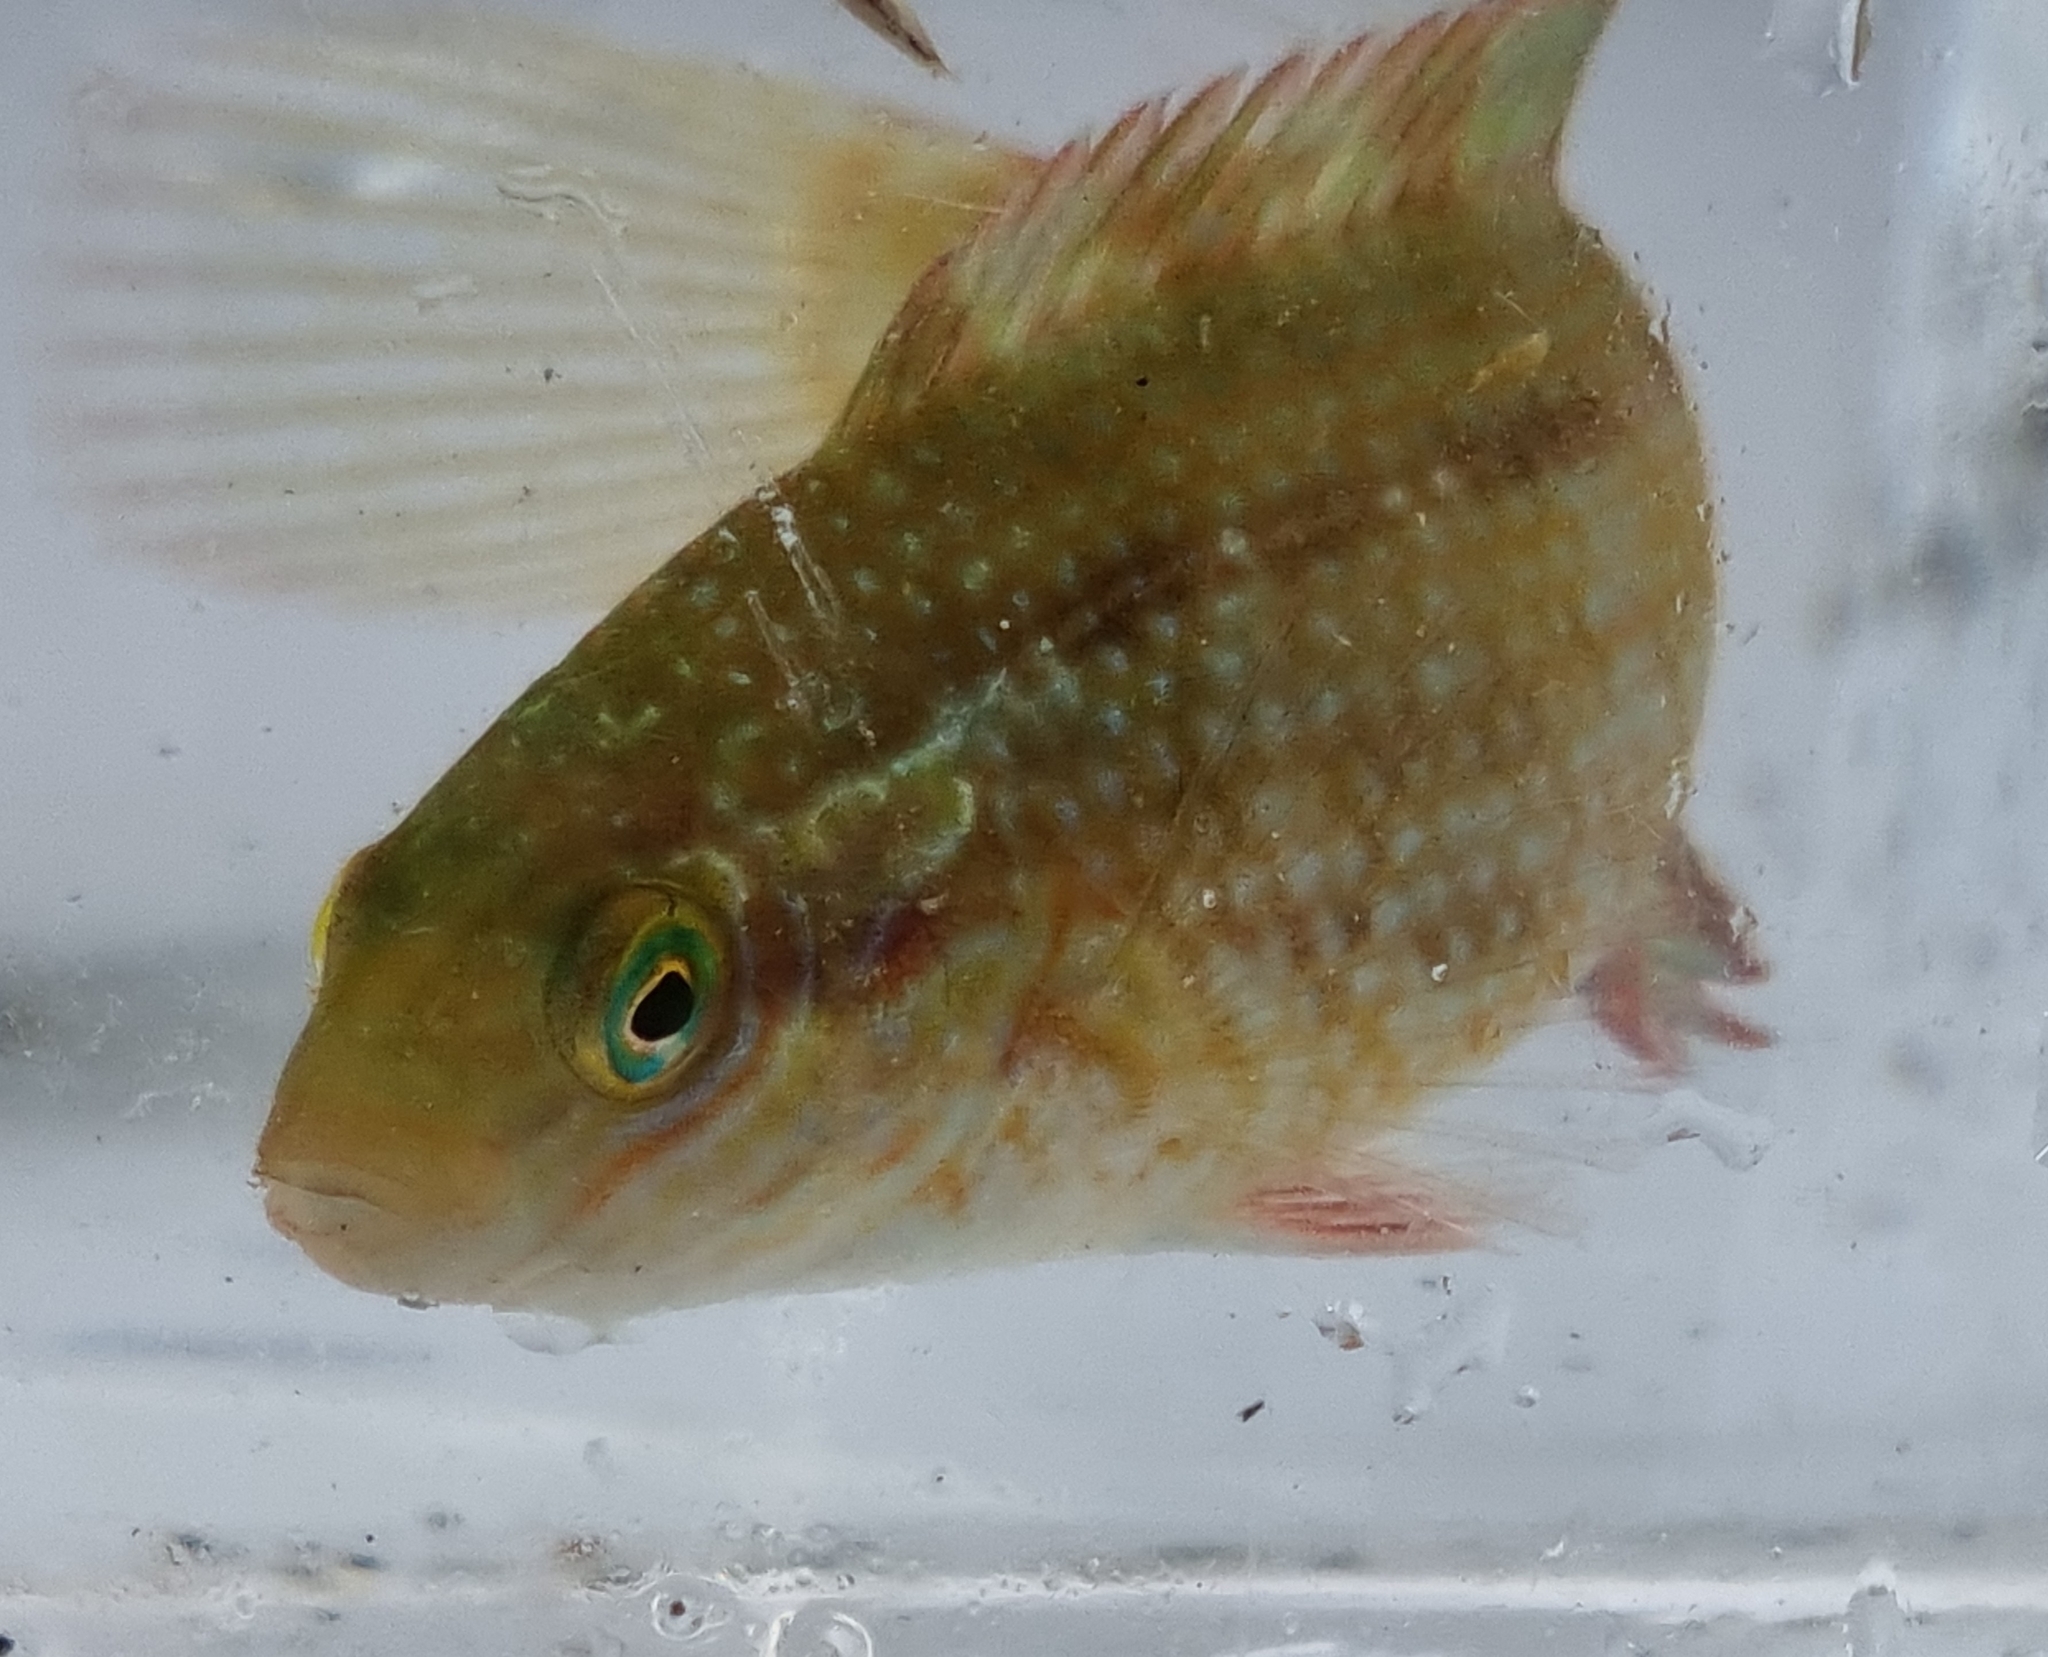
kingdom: Animalia
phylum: Chordata
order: Perciformes
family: Labridae
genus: Symphodus
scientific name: Symphodus melops
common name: Corkwing
